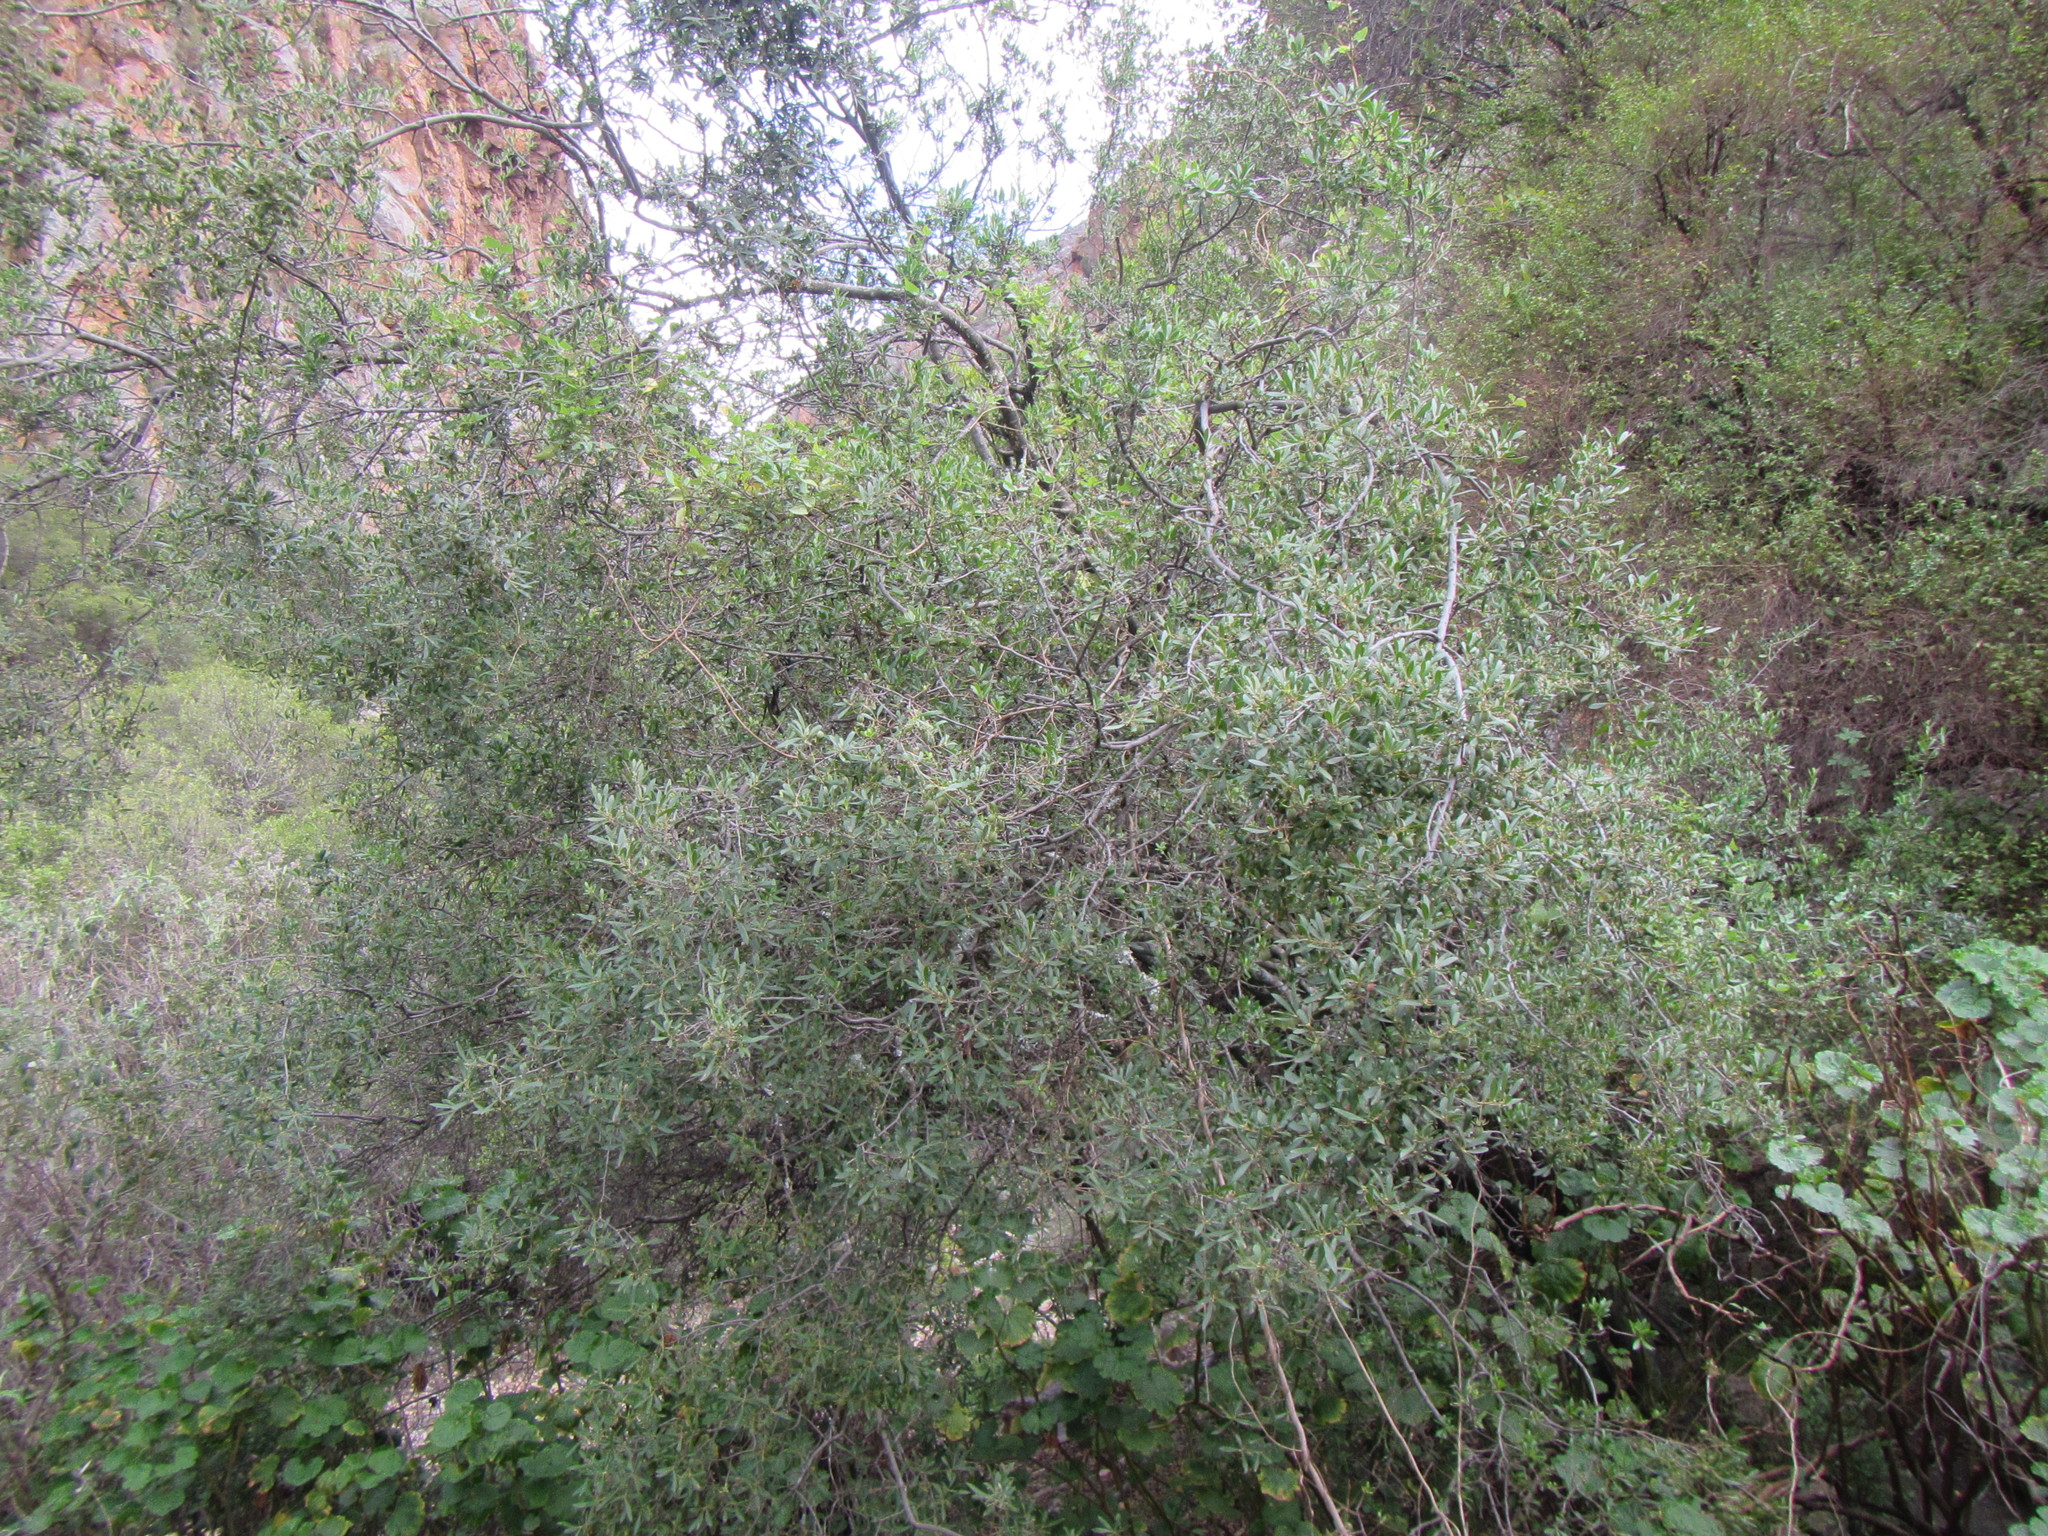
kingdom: Plantae
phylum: Tracheophyta
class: Magnoliopsida
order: Ericales
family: Ebenaceae
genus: Diospyros
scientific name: Diospyros lycioides
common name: Red star apple
